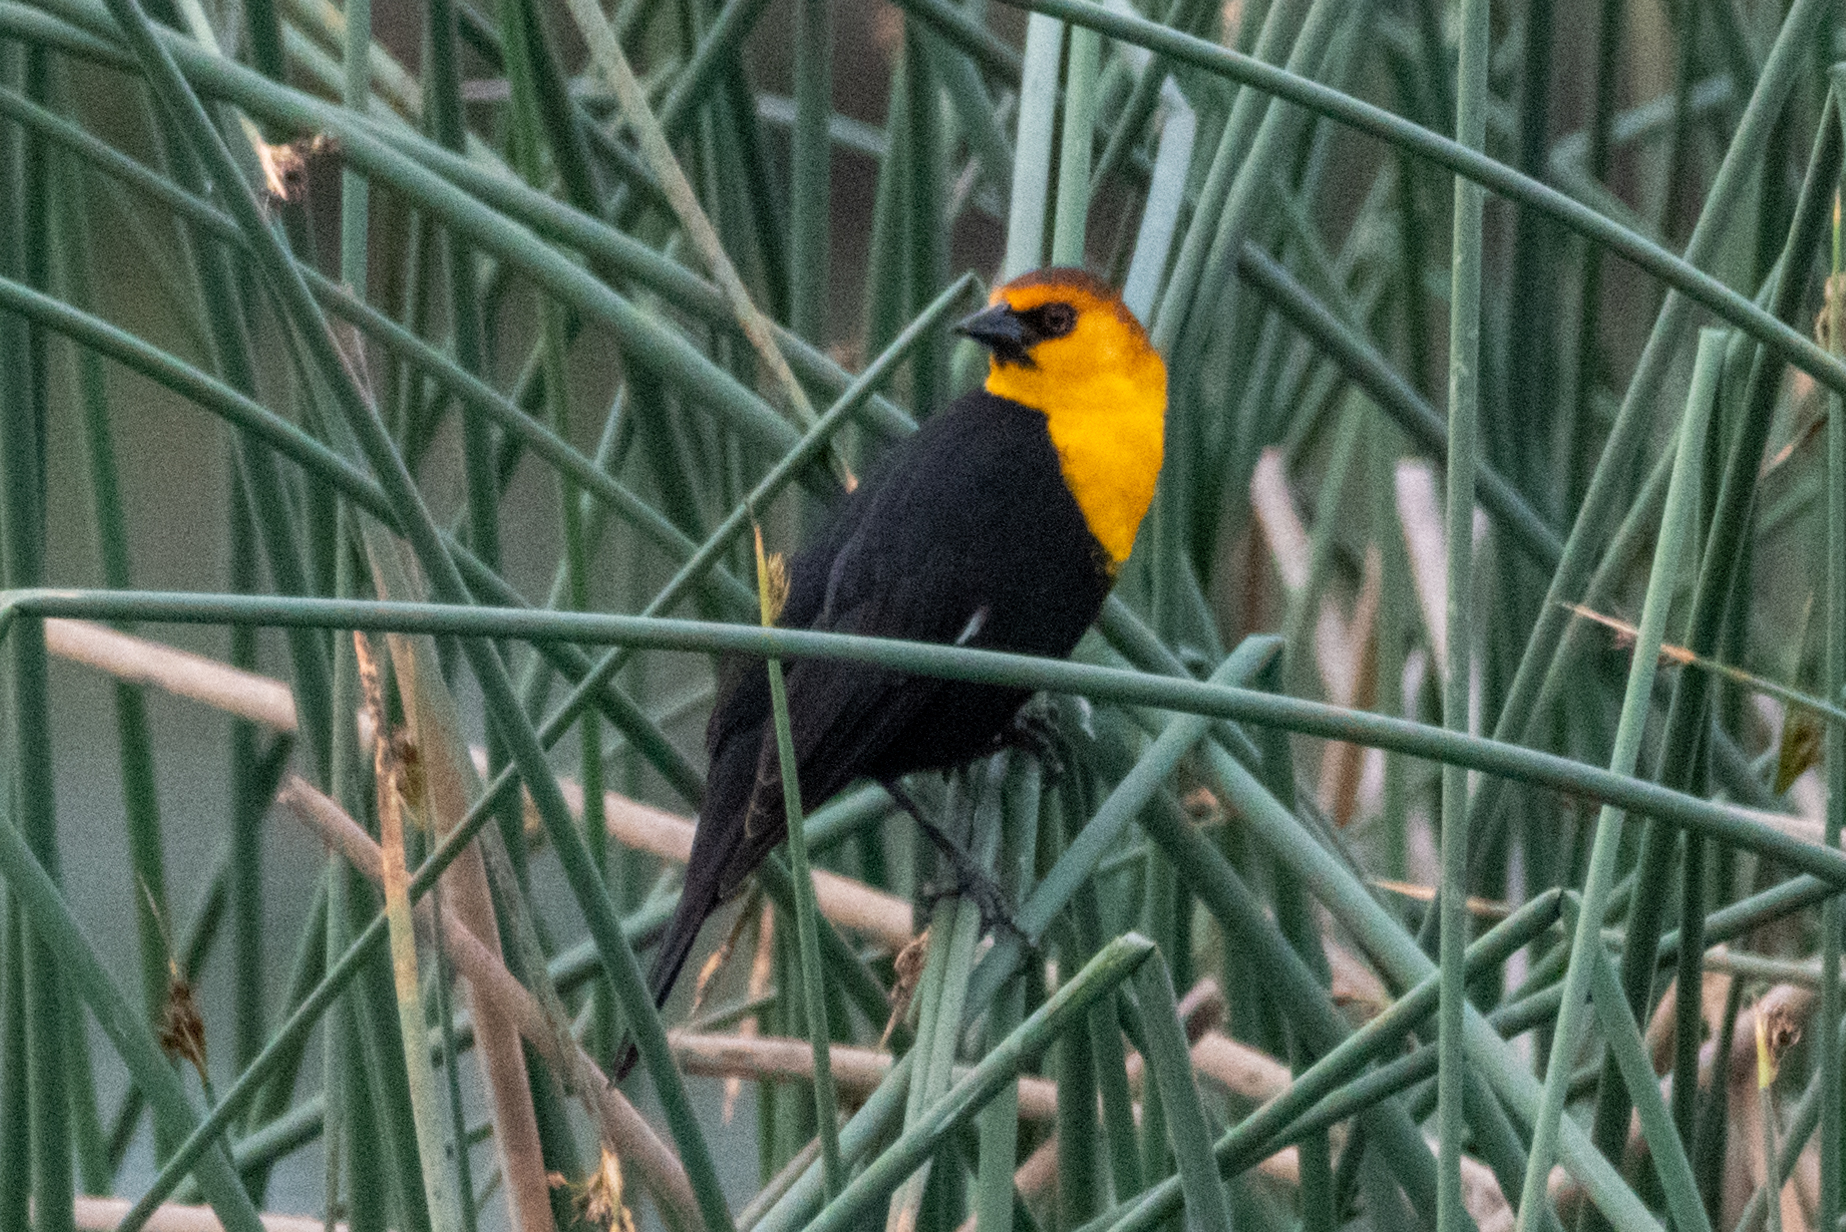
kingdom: Animalia
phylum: Chordata
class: Aves
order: Passeriformes
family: Icteridae
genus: Xanthocephalus
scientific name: Xanthocephalus xanthocephalus
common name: Yellow-headed blackbird
